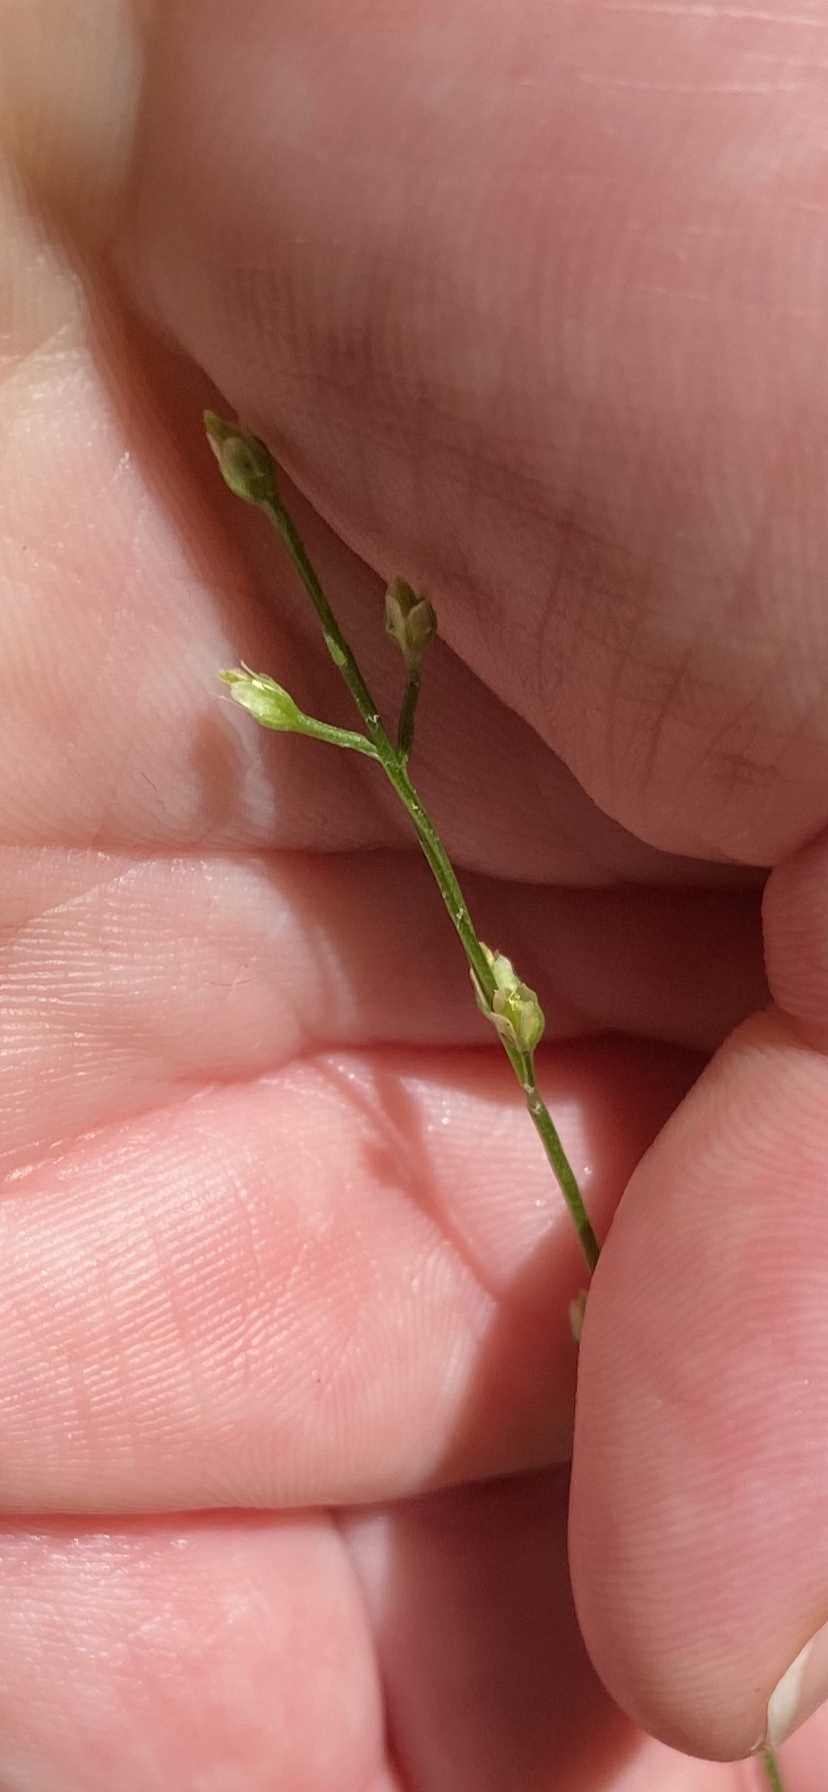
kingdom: Plantae
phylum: Tracheophyta
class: Magnoliopsida
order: Gentianales
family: Gentianaceae
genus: Bartonia
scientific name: Bartonia virginica
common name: Yellow bartonia
